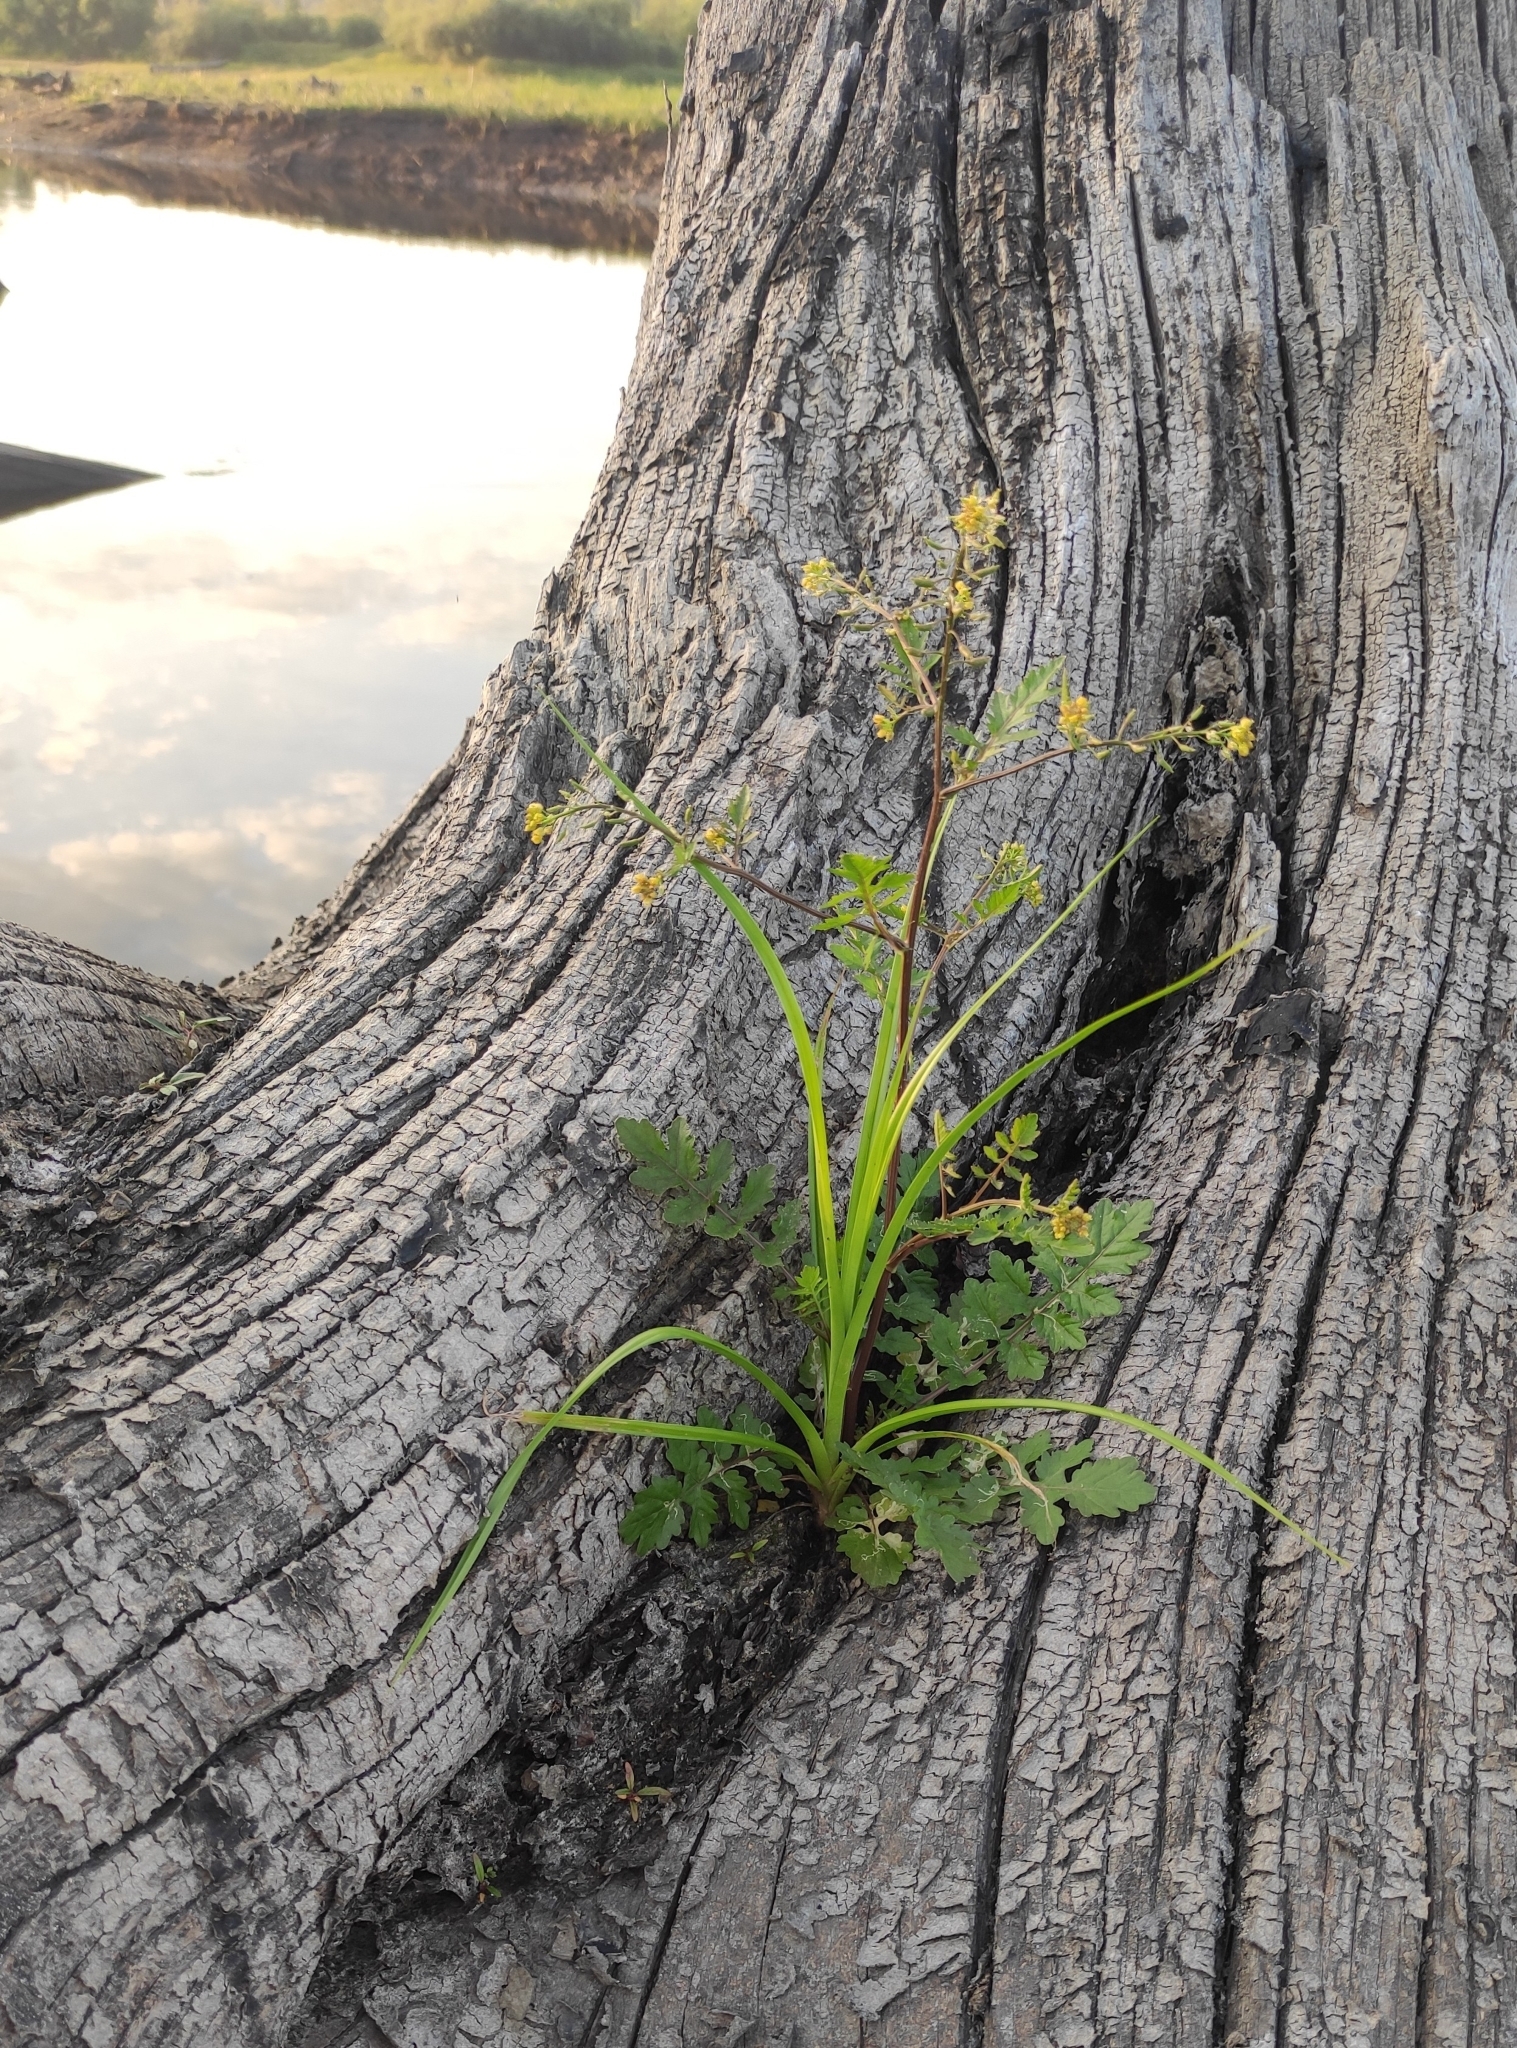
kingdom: Plantae
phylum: Tracheophyta
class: Magnoliopsida
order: Brassicales
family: Brassicaceae
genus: Rorippa
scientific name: Rorippa palustris
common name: Marsh yellow-cress
